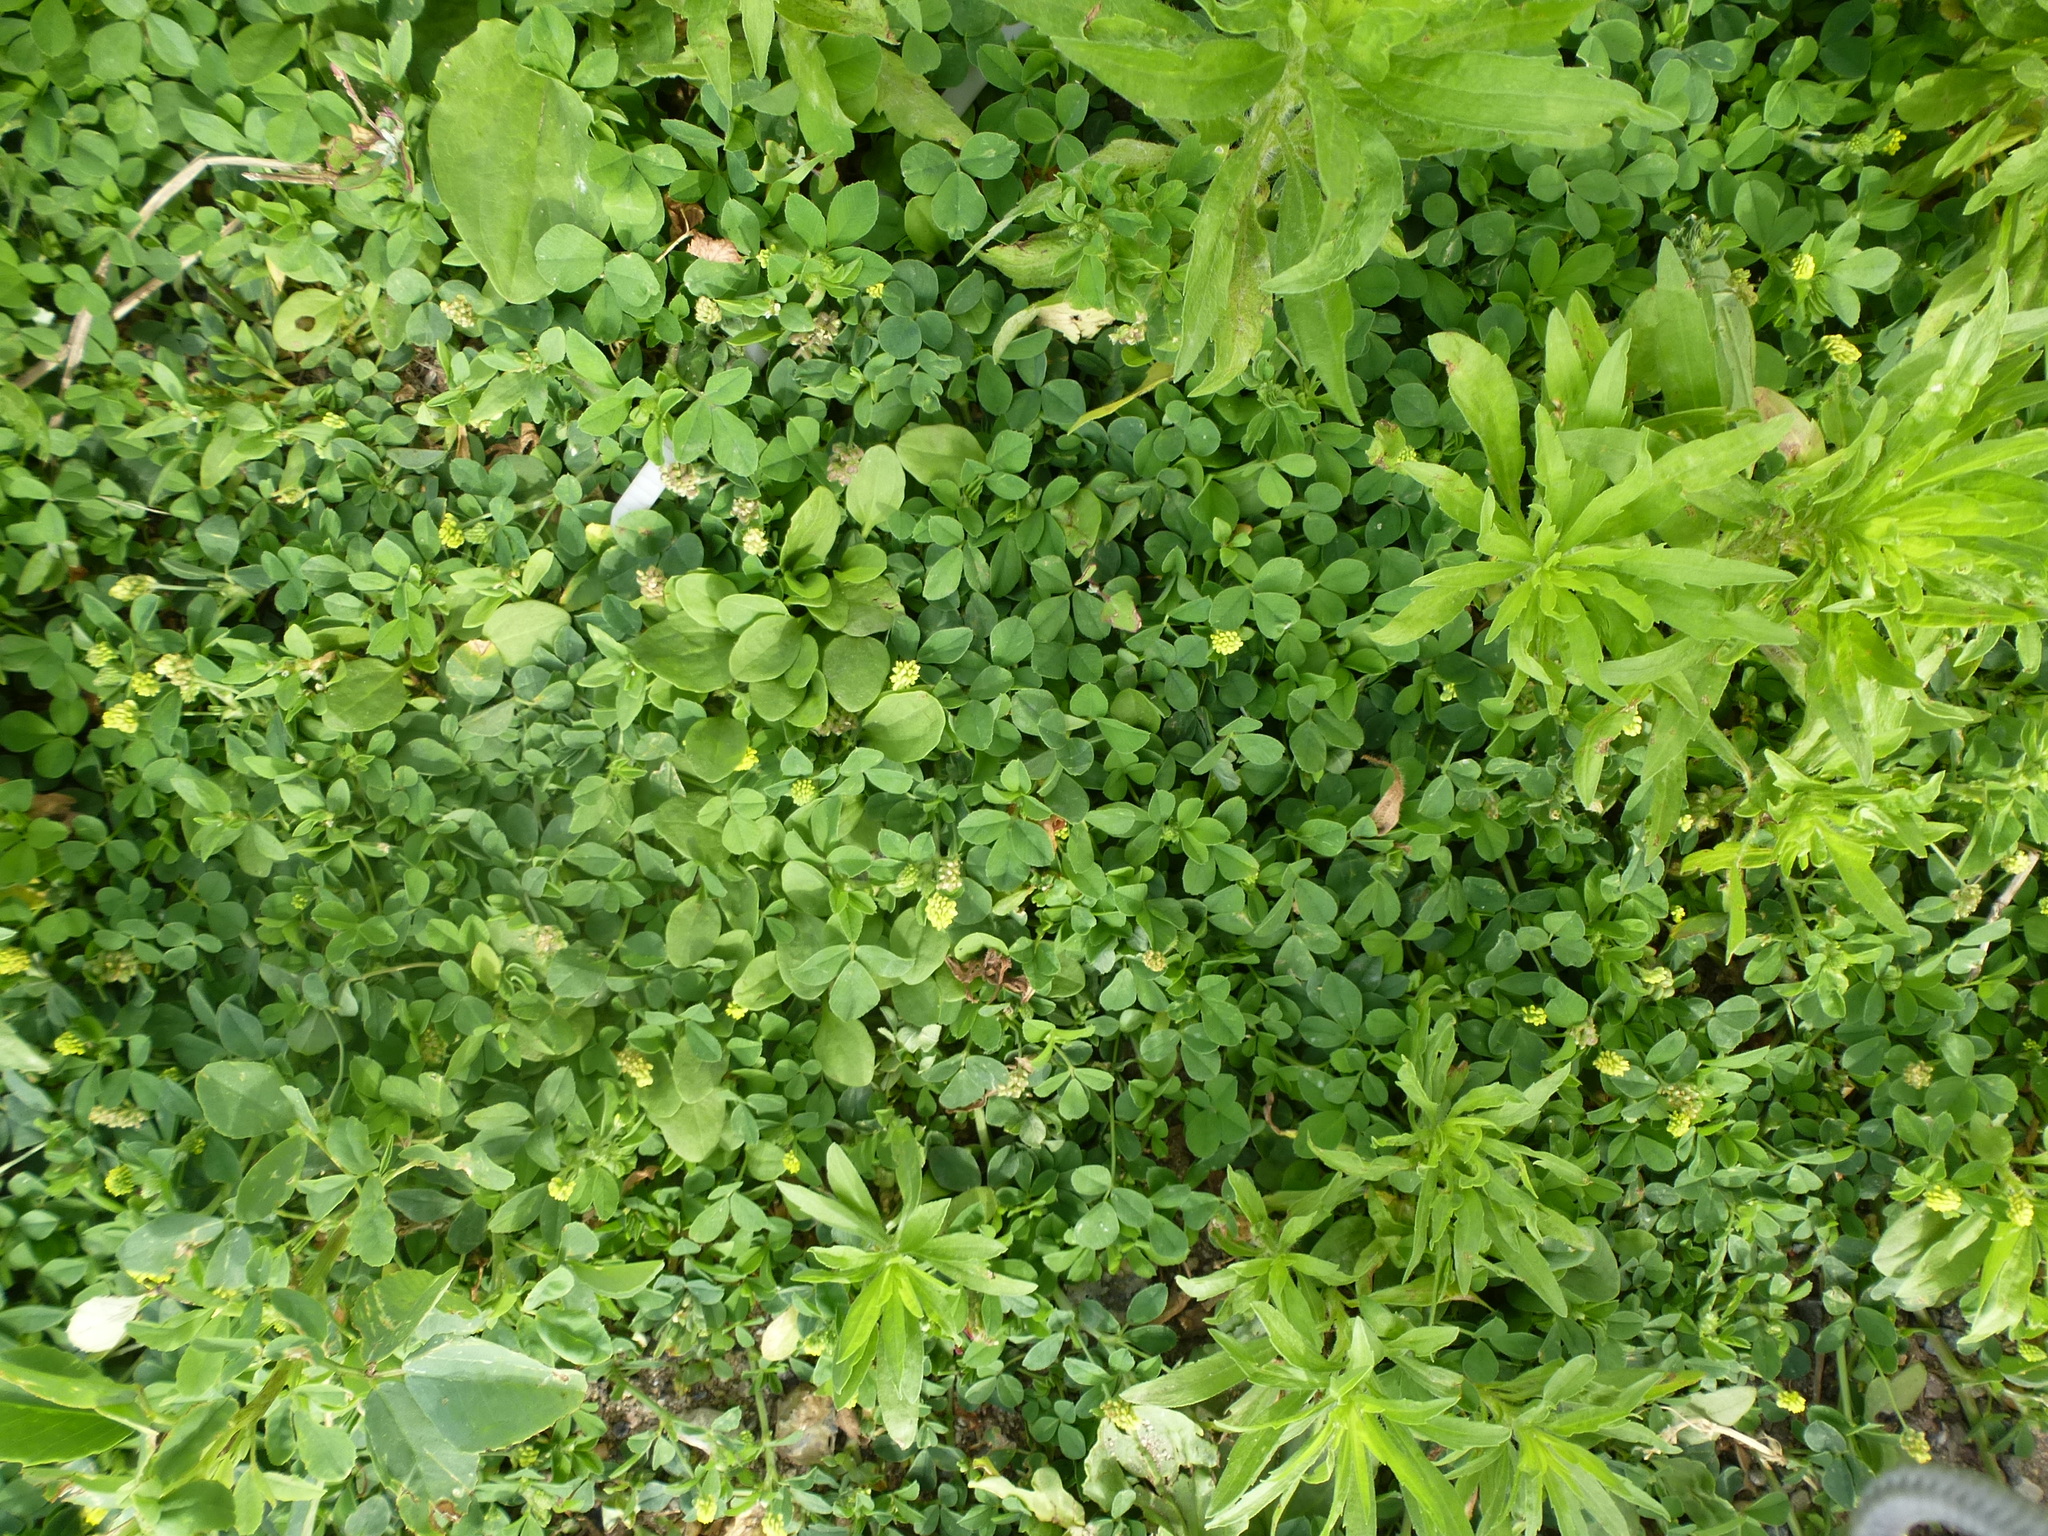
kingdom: Plantae
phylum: Tracheophyta
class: Magnoliopsida
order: Fabales
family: Fabaceae
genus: Medicago
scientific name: Medicago lupulina
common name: Black medick
